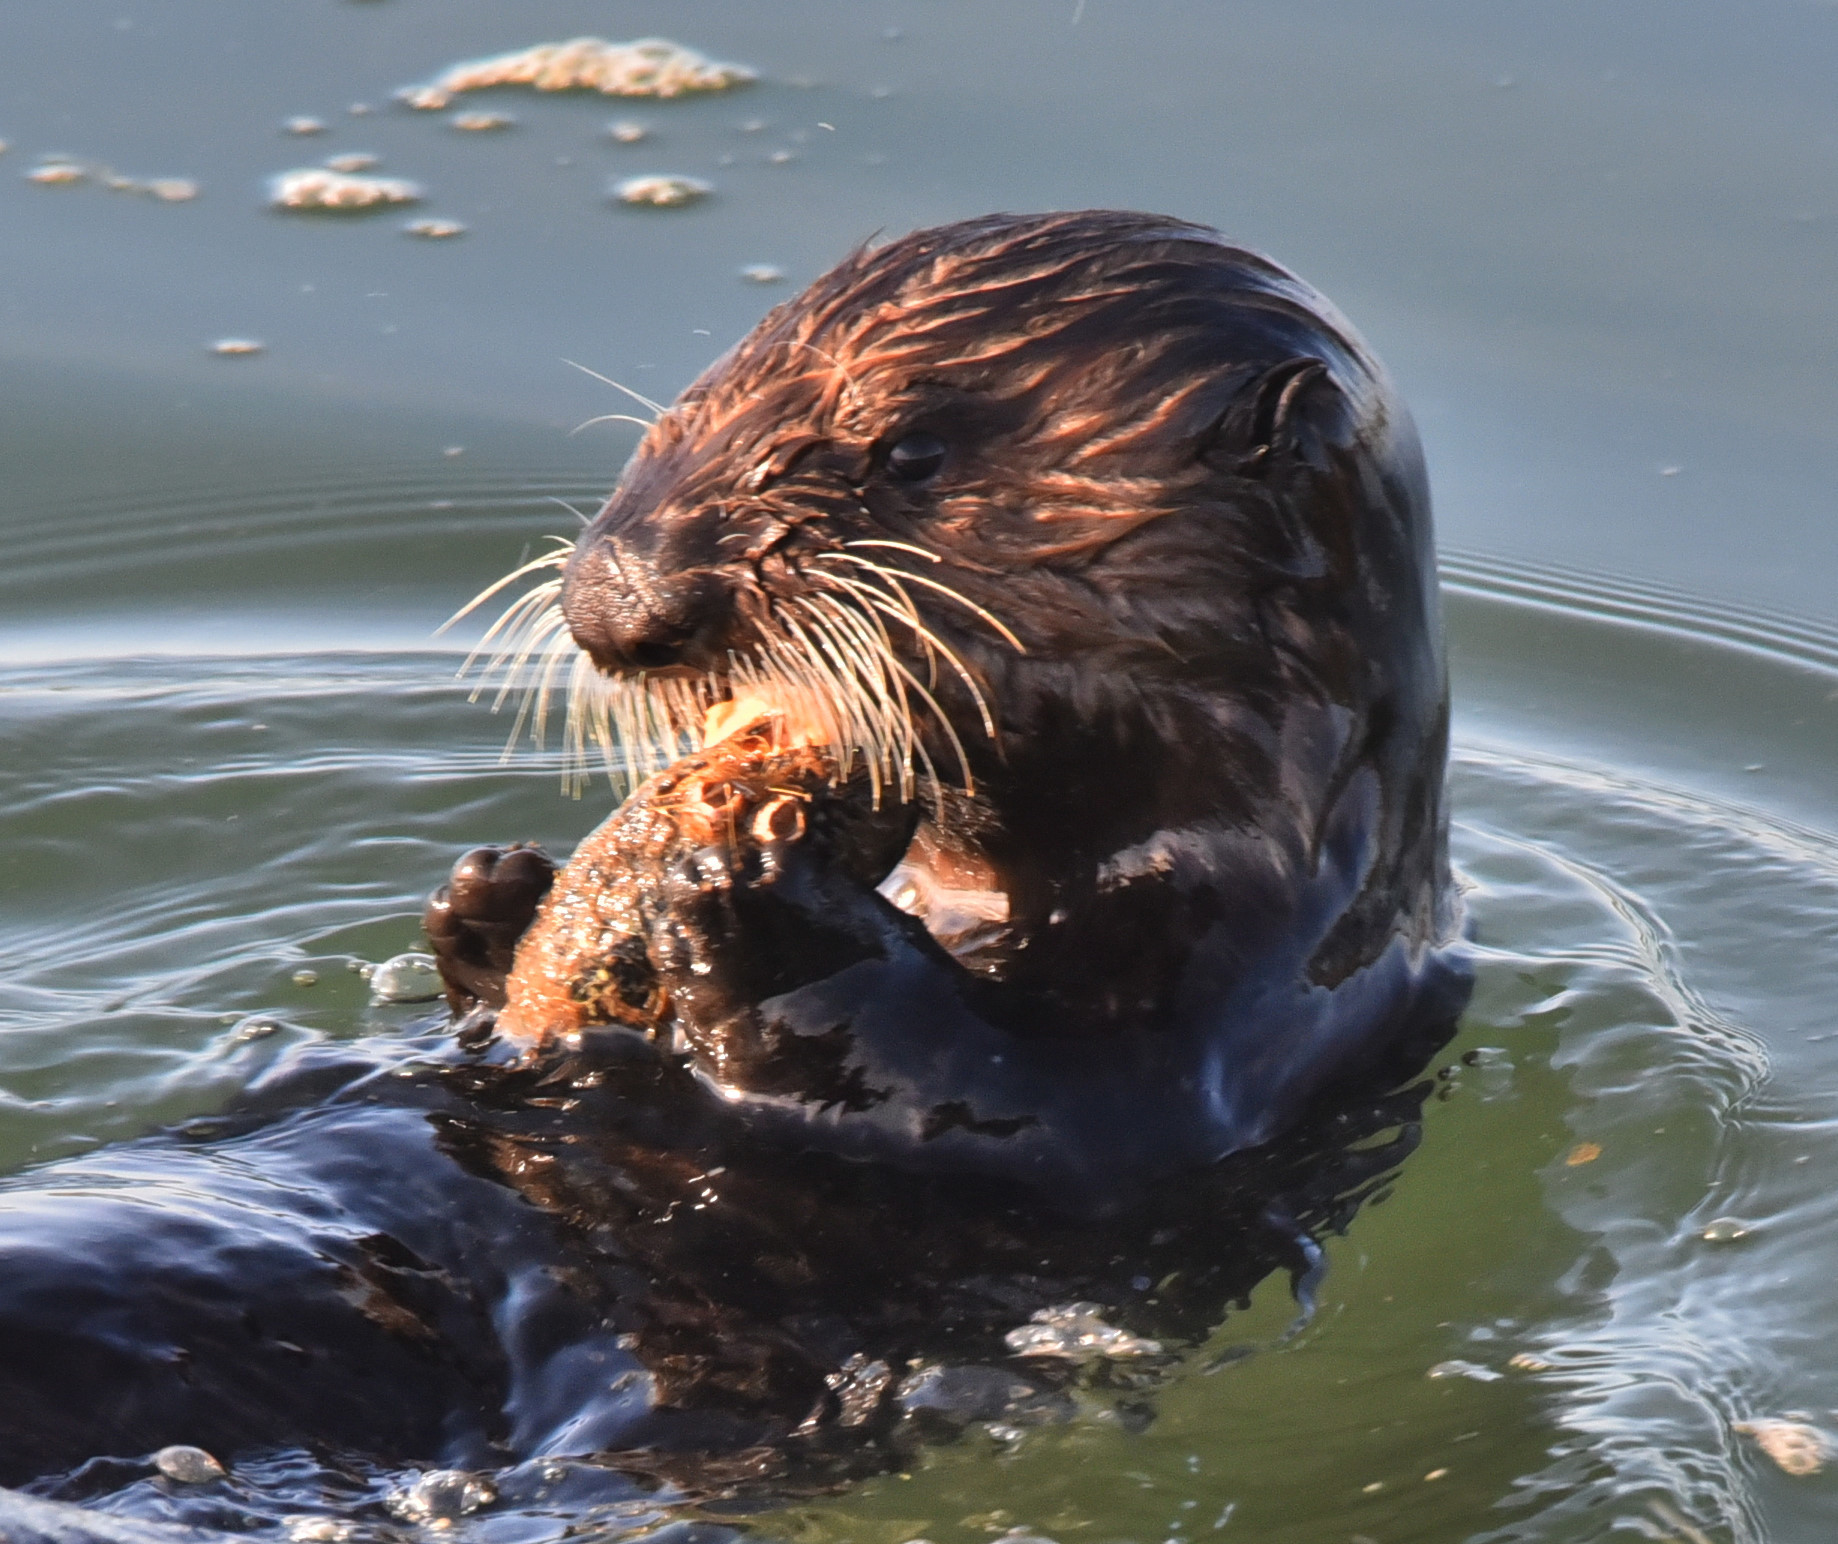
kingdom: Animalia
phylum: Chordata
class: Mammalia
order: Carnivora
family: Mustelidae
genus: Enhydra
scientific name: Enhydra lutris
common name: Sea otter
